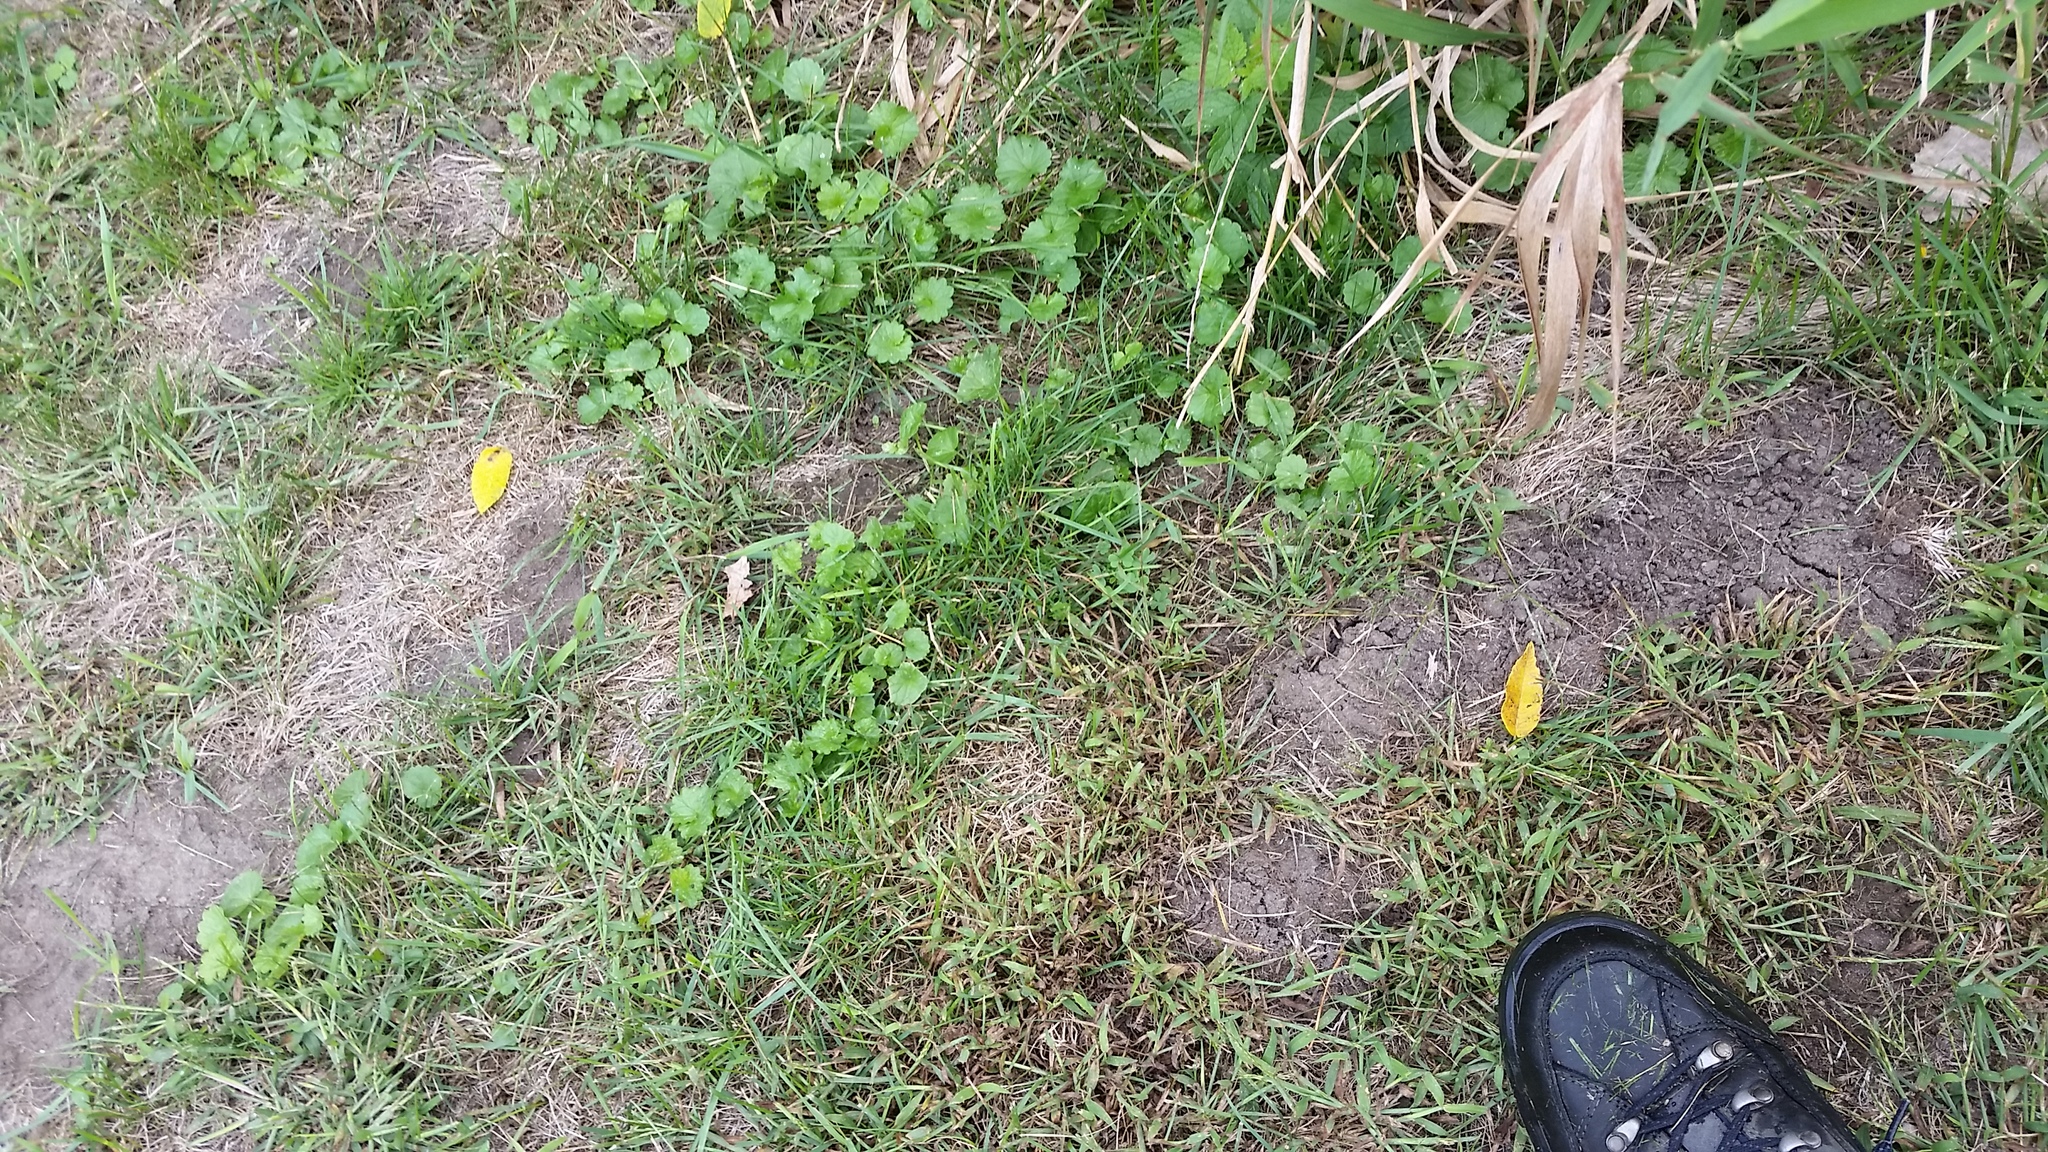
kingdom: Animalia
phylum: Chordata
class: Mammalia
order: Soricomorpha
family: Talpidae
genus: Scalopus
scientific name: Scalopus aquaticus
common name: Eastern mole
